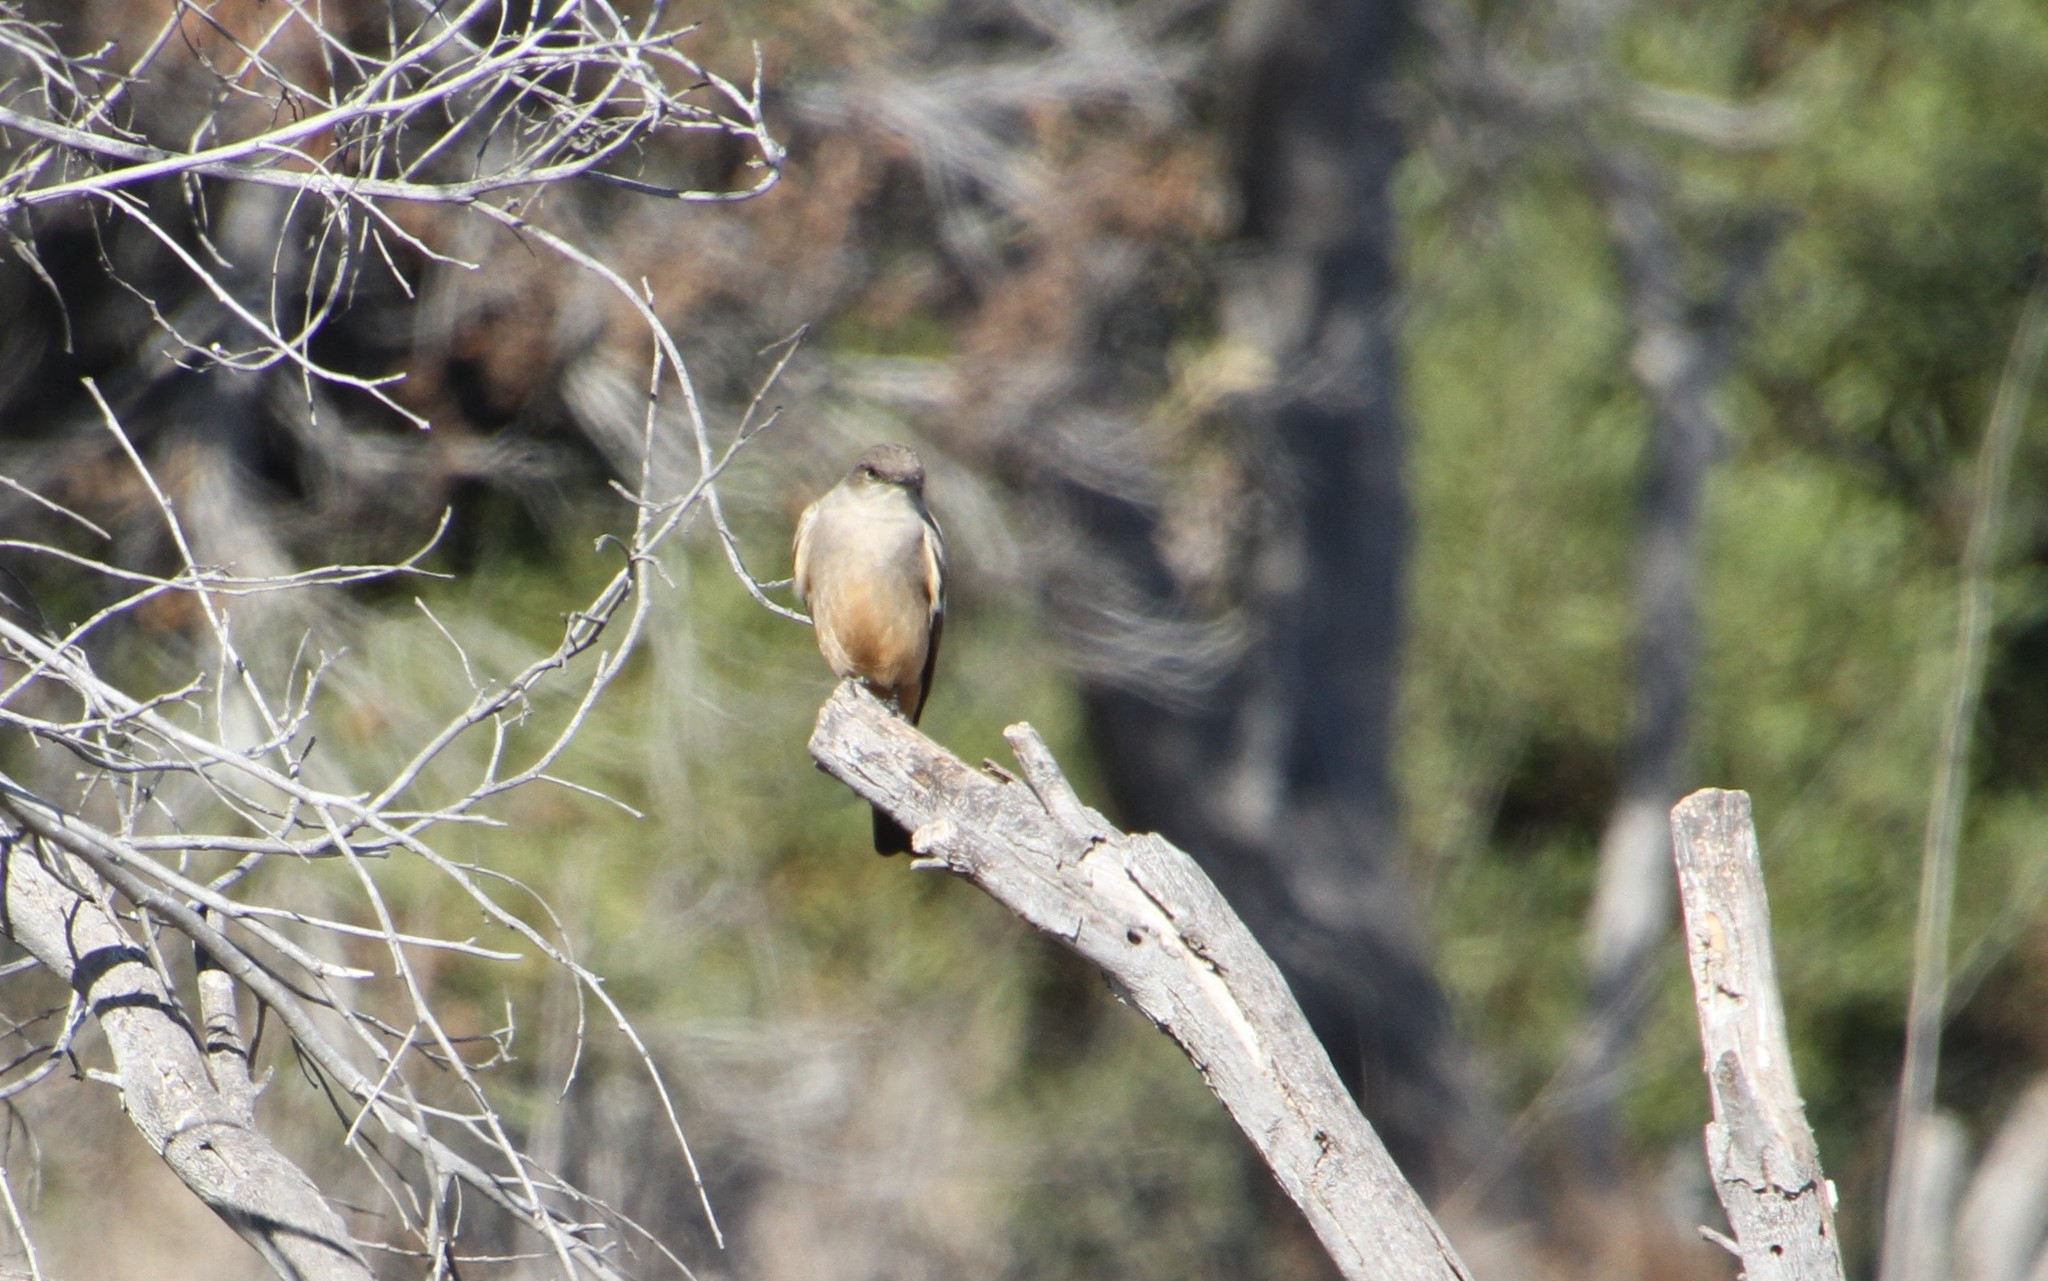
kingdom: Animalia
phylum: Chordata
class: Aves
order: Passeriformes
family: Tyrannidae
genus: Sayornis
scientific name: Sayornis saya
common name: Say's phoebe
